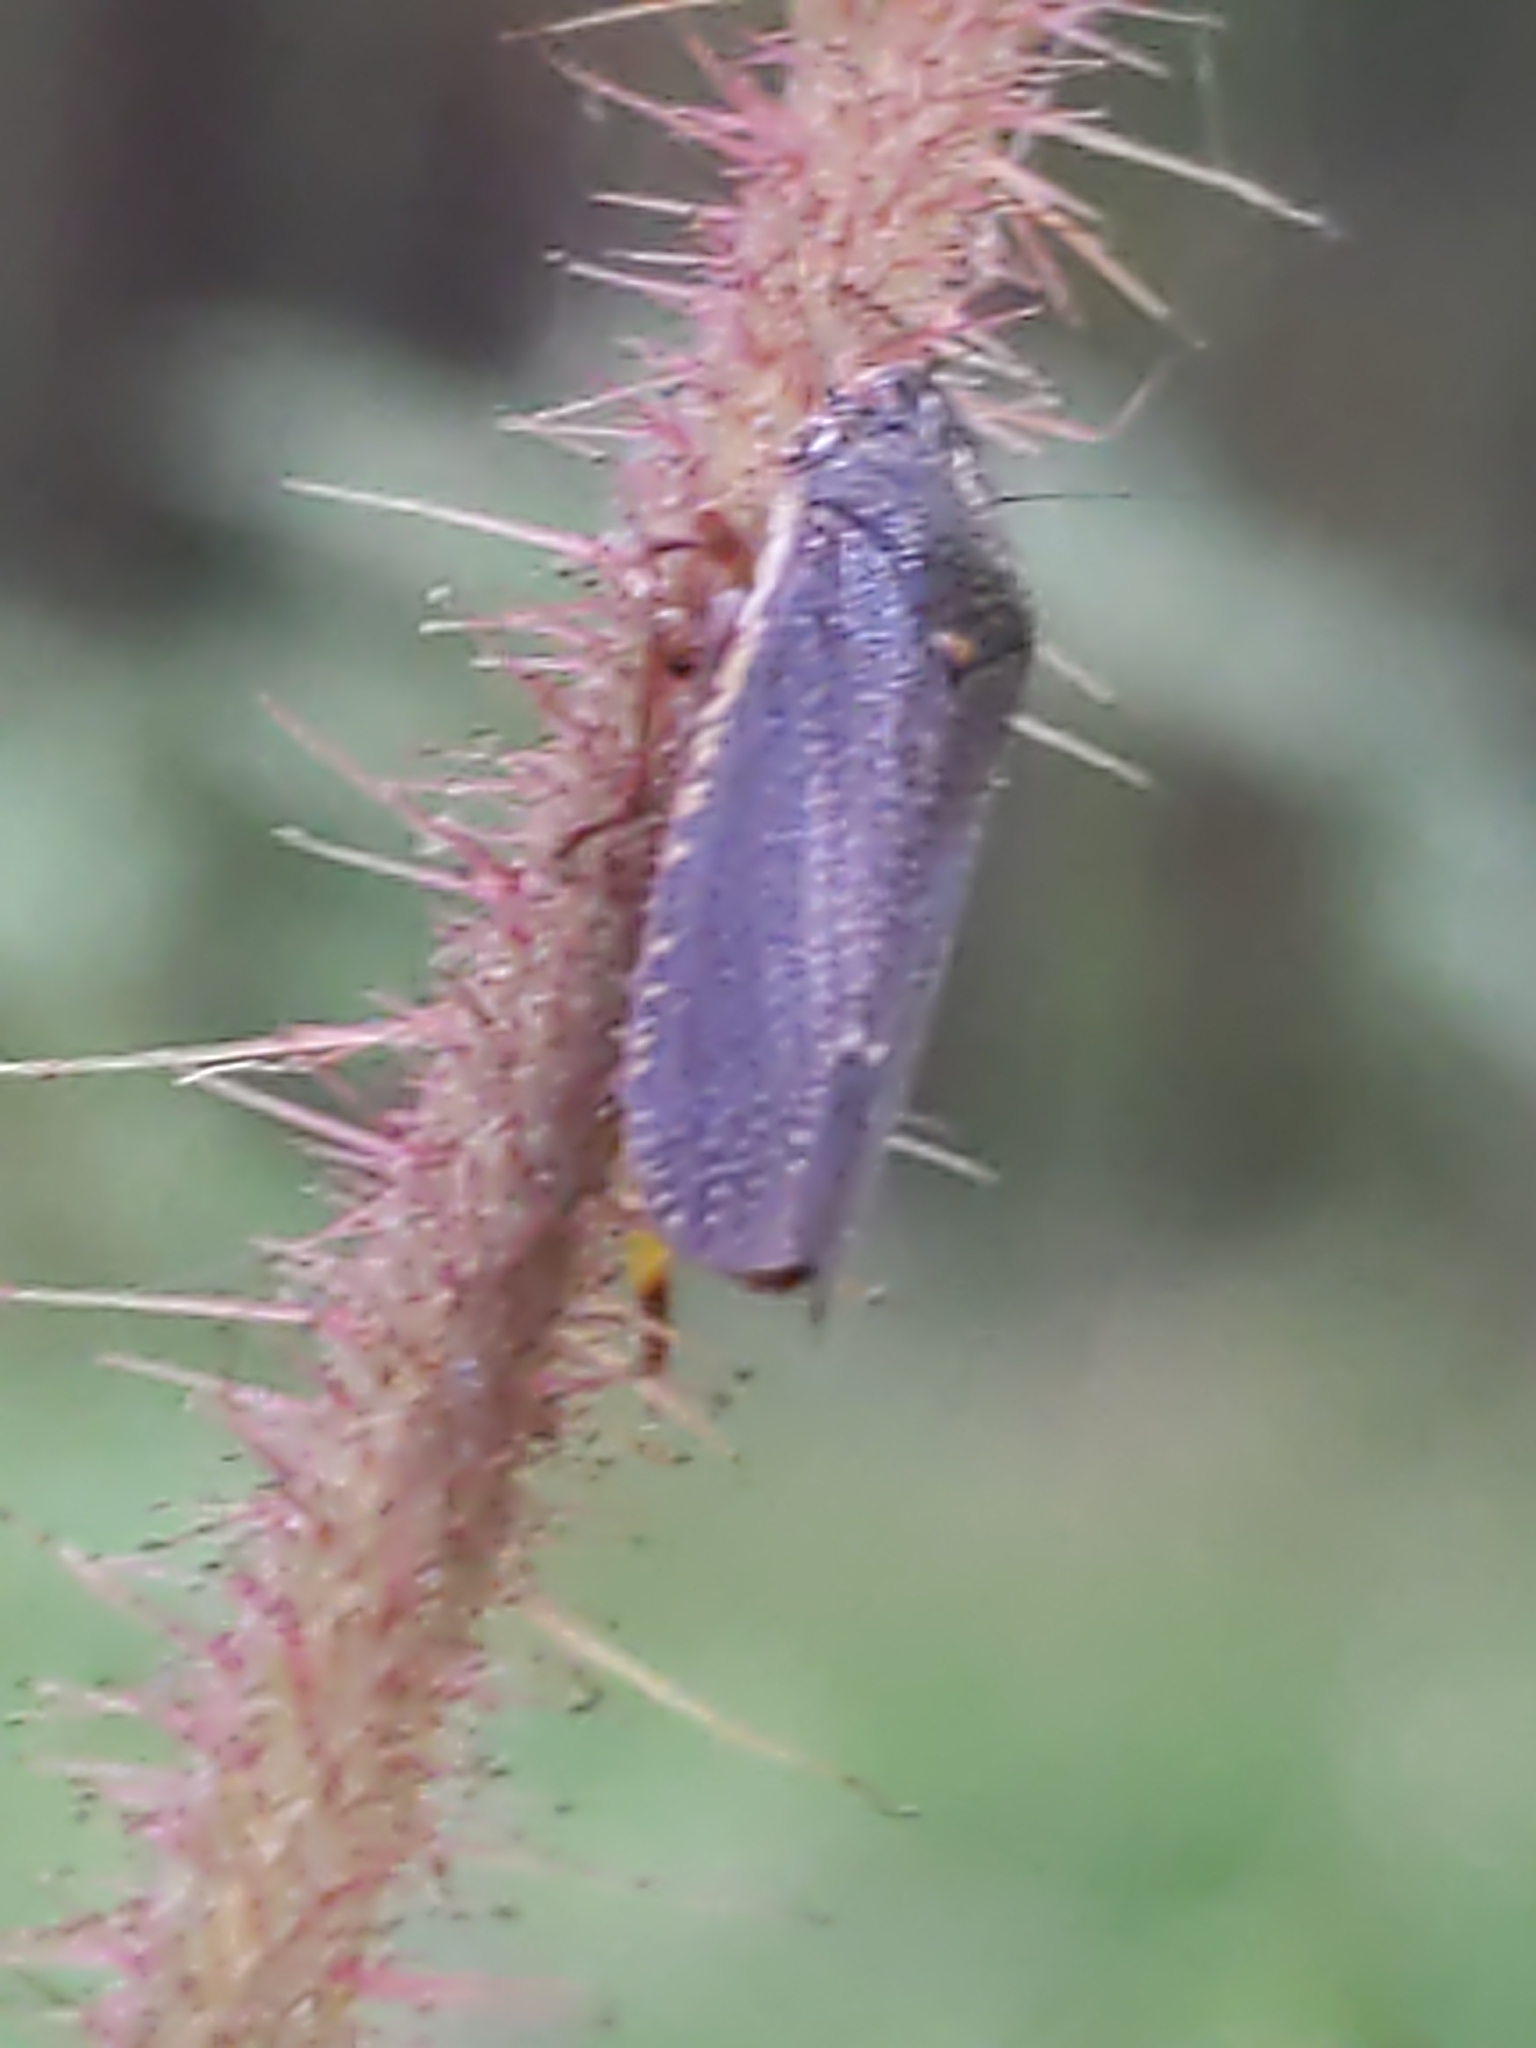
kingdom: Animalia
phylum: Arthropoda
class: Insecta
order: Hemiptera
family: Cicadellidae
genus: Paraulacizes
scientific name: Paraulacizes irrorata
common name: Speckled sharpshooter
